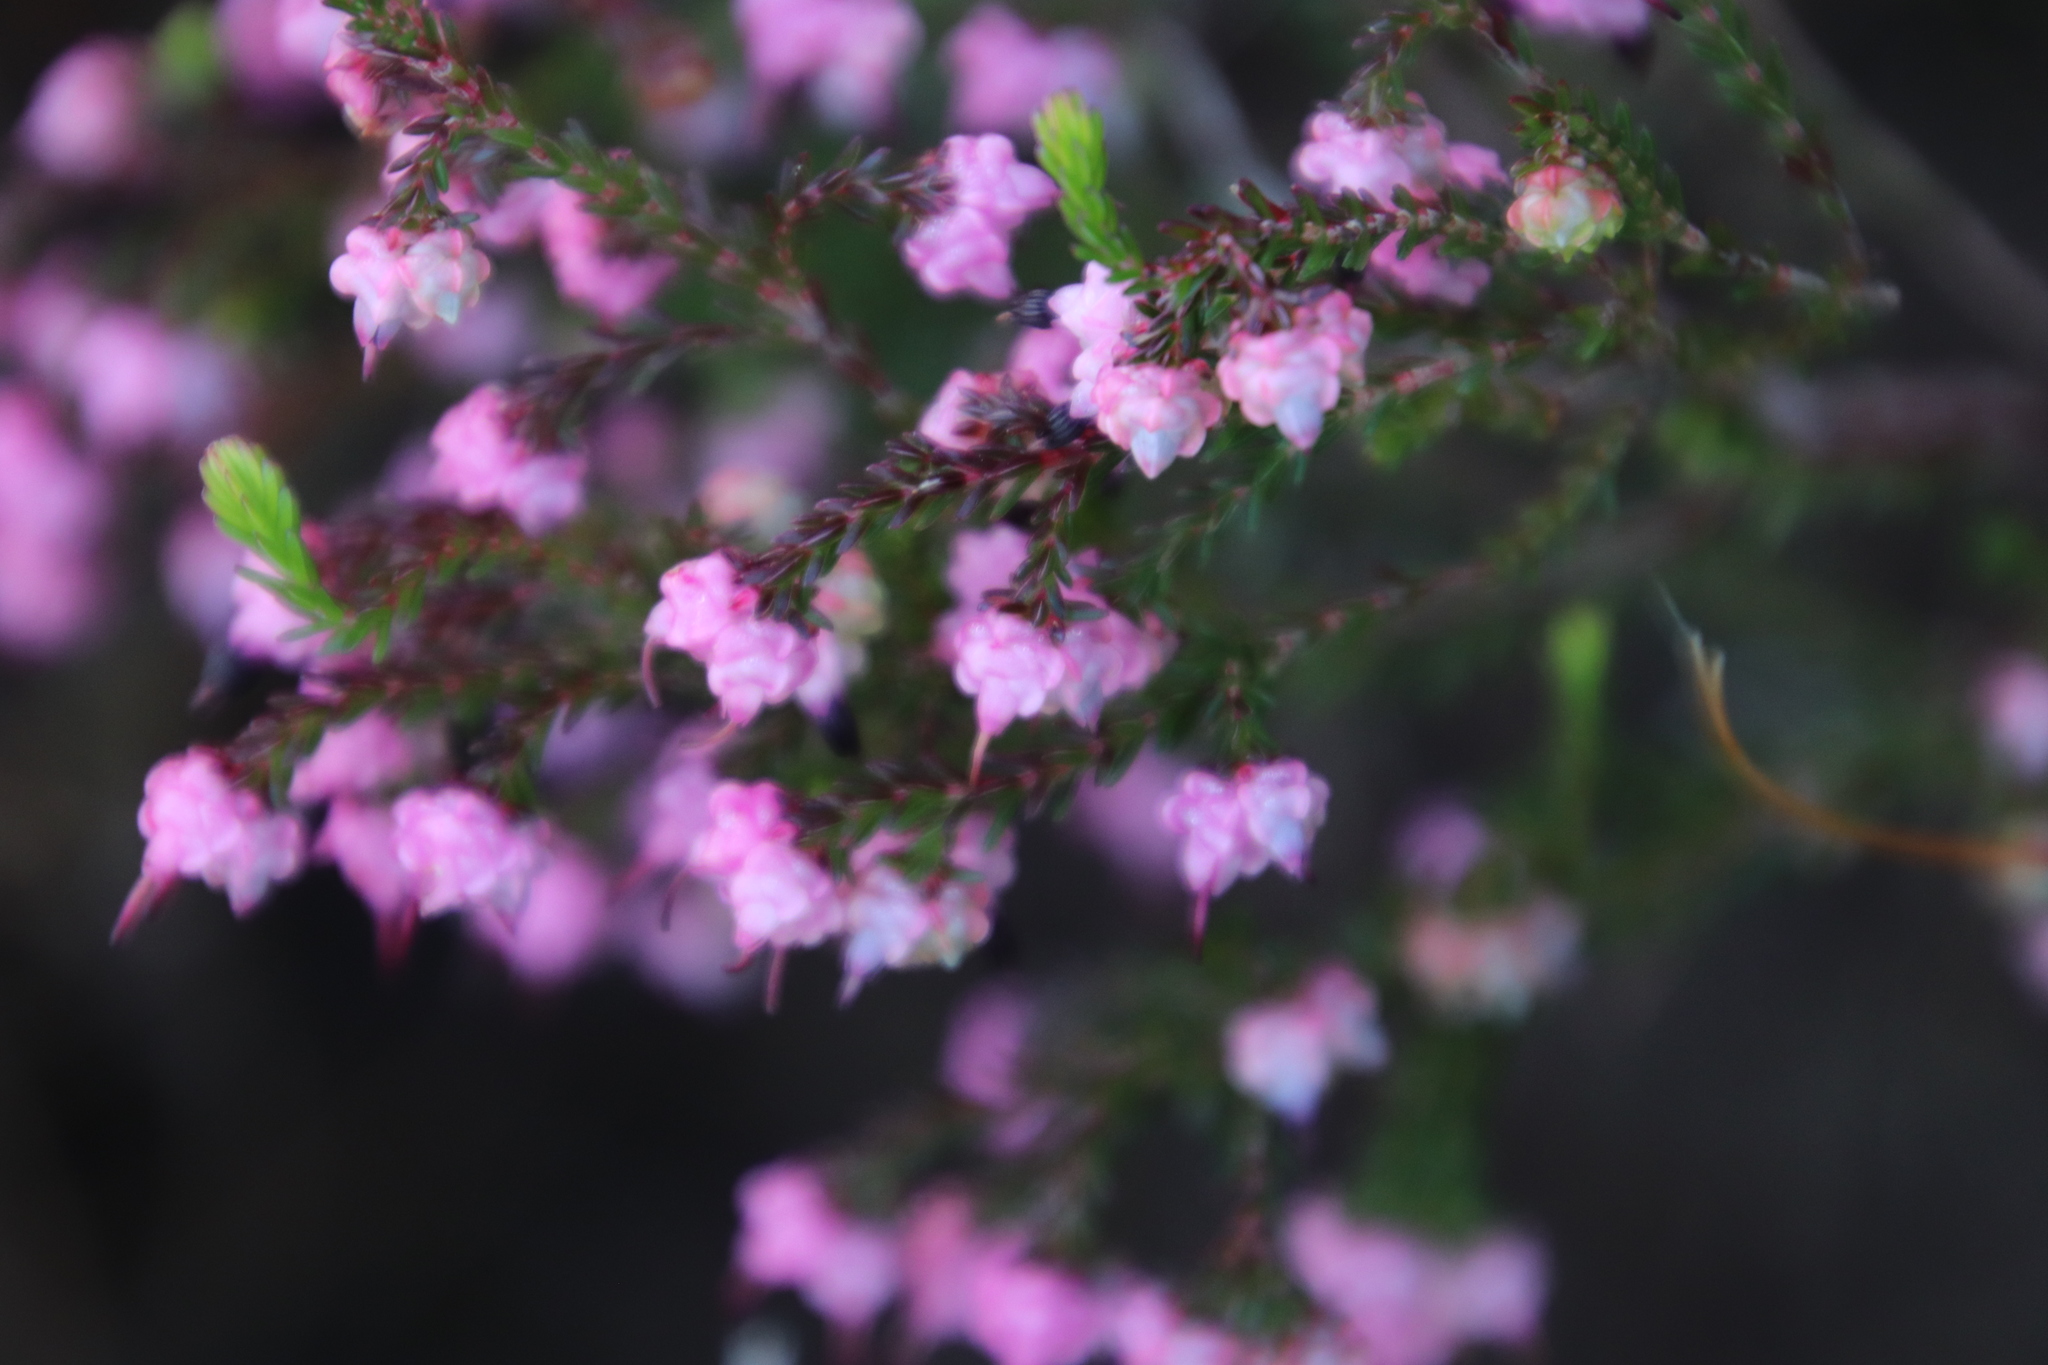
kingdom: Plantae
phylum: Tracheophyta
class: Magnoliopsida
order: Ericales
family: Ericaceae
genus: Erica
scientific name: Erica spumosa
